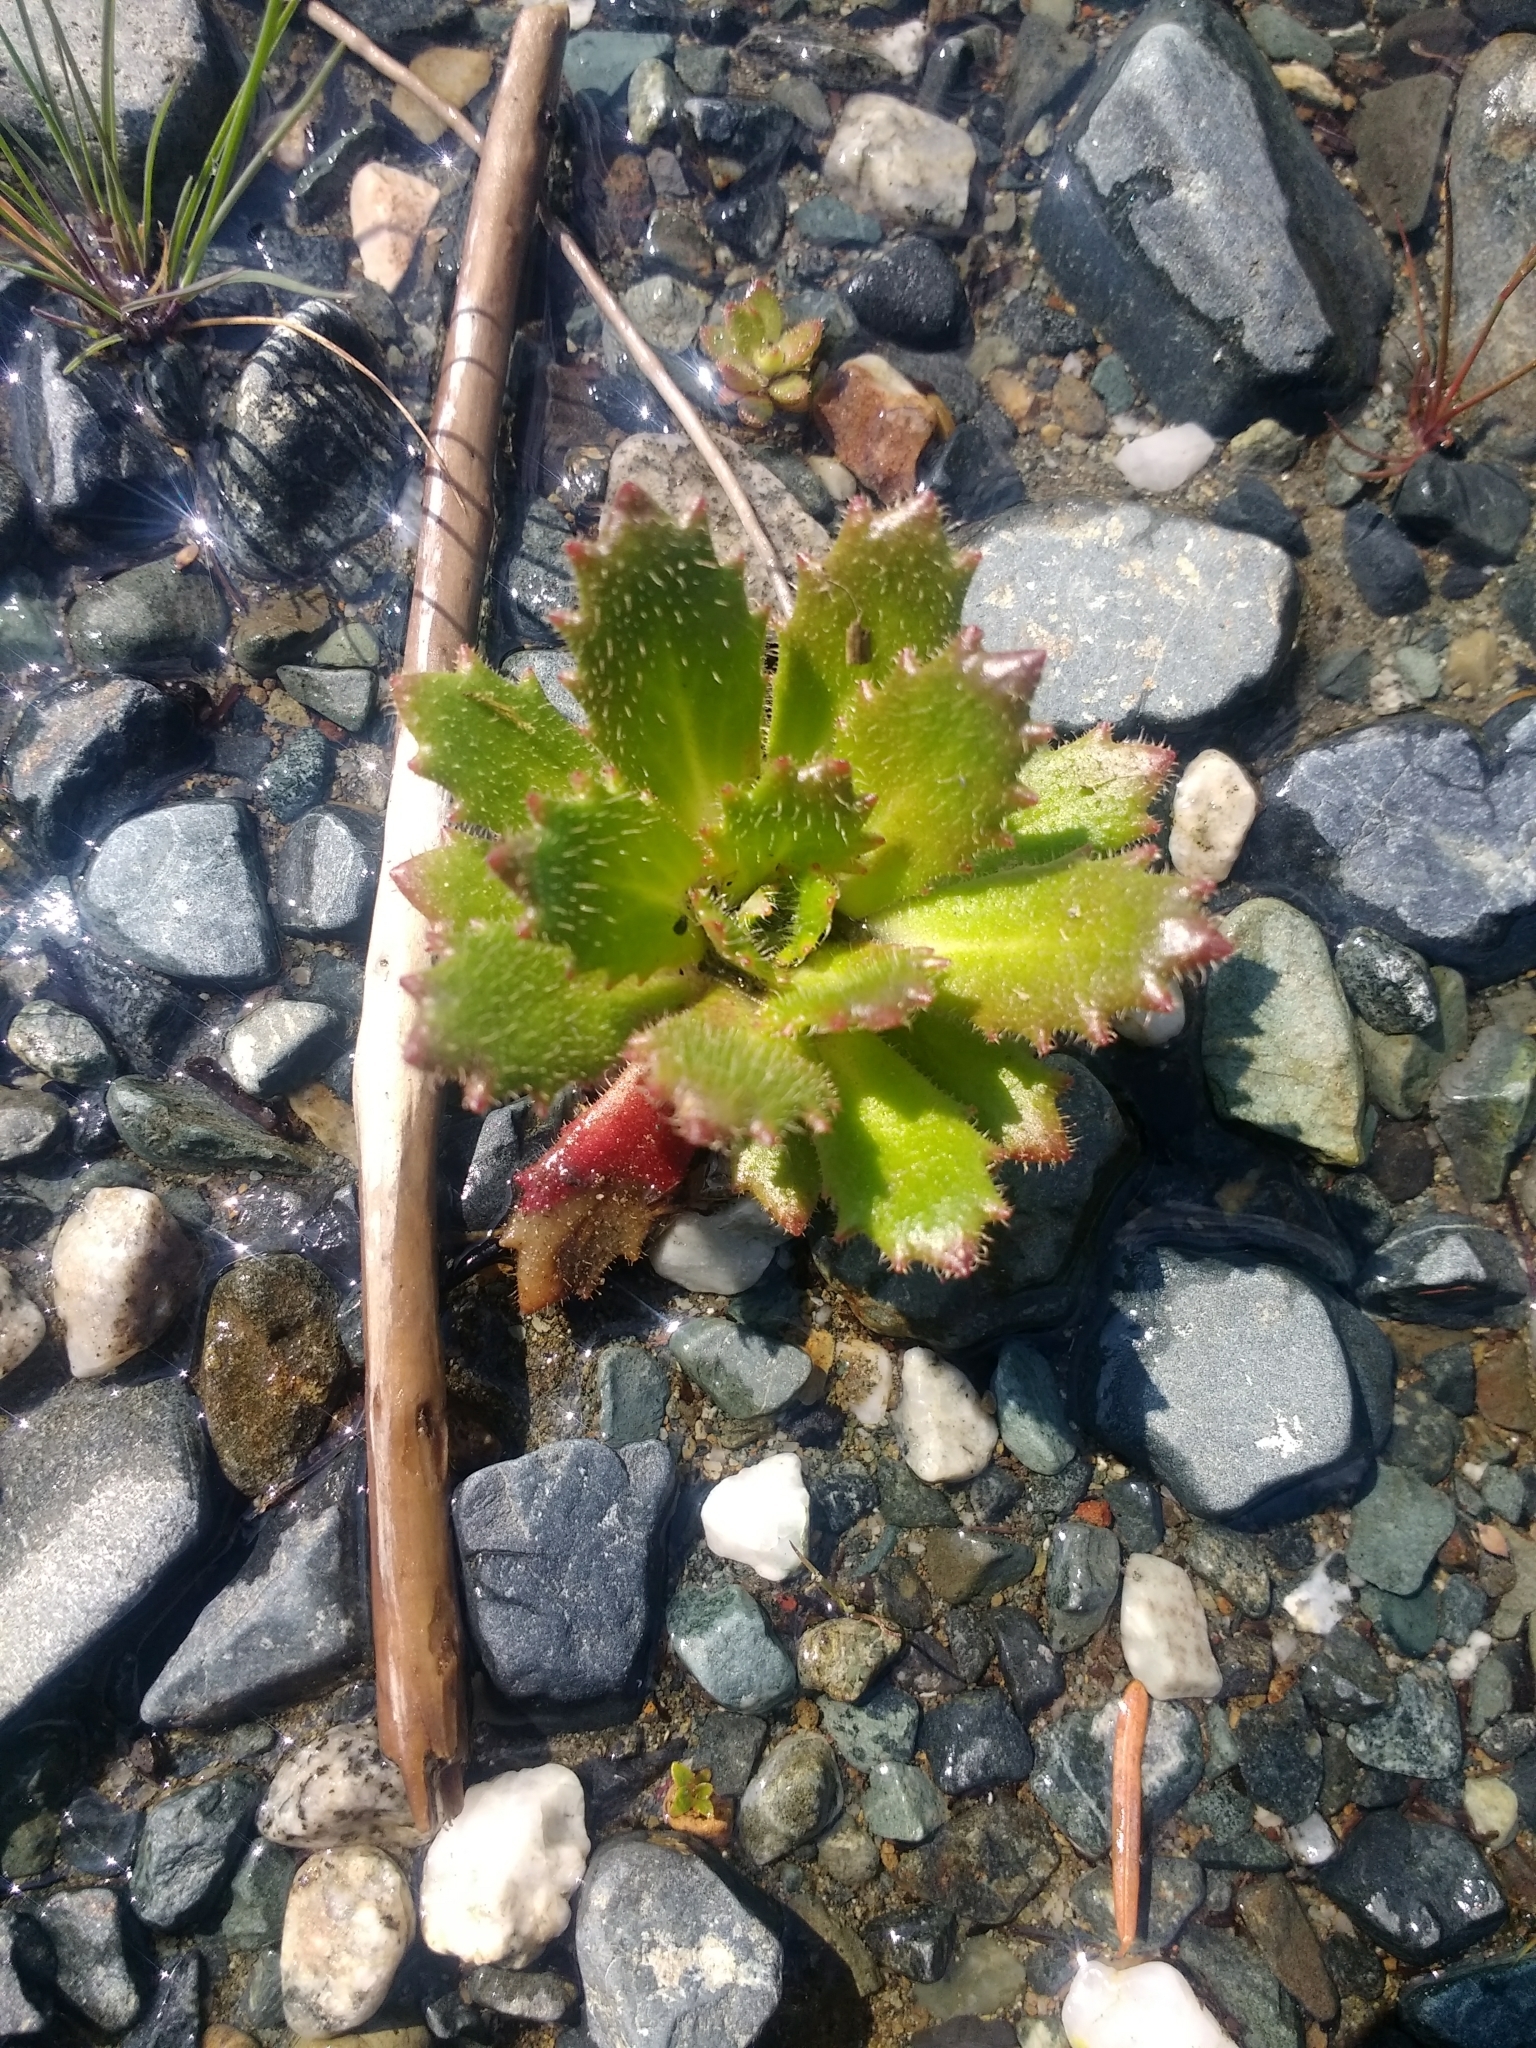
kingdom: Plantae
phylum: Tracheophyta
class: Magnoliopsida
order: Saxifragales
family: Saxifragaceae
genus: Micranthes
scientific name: Micranthes ferruginea
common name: Rusty saxifrage
